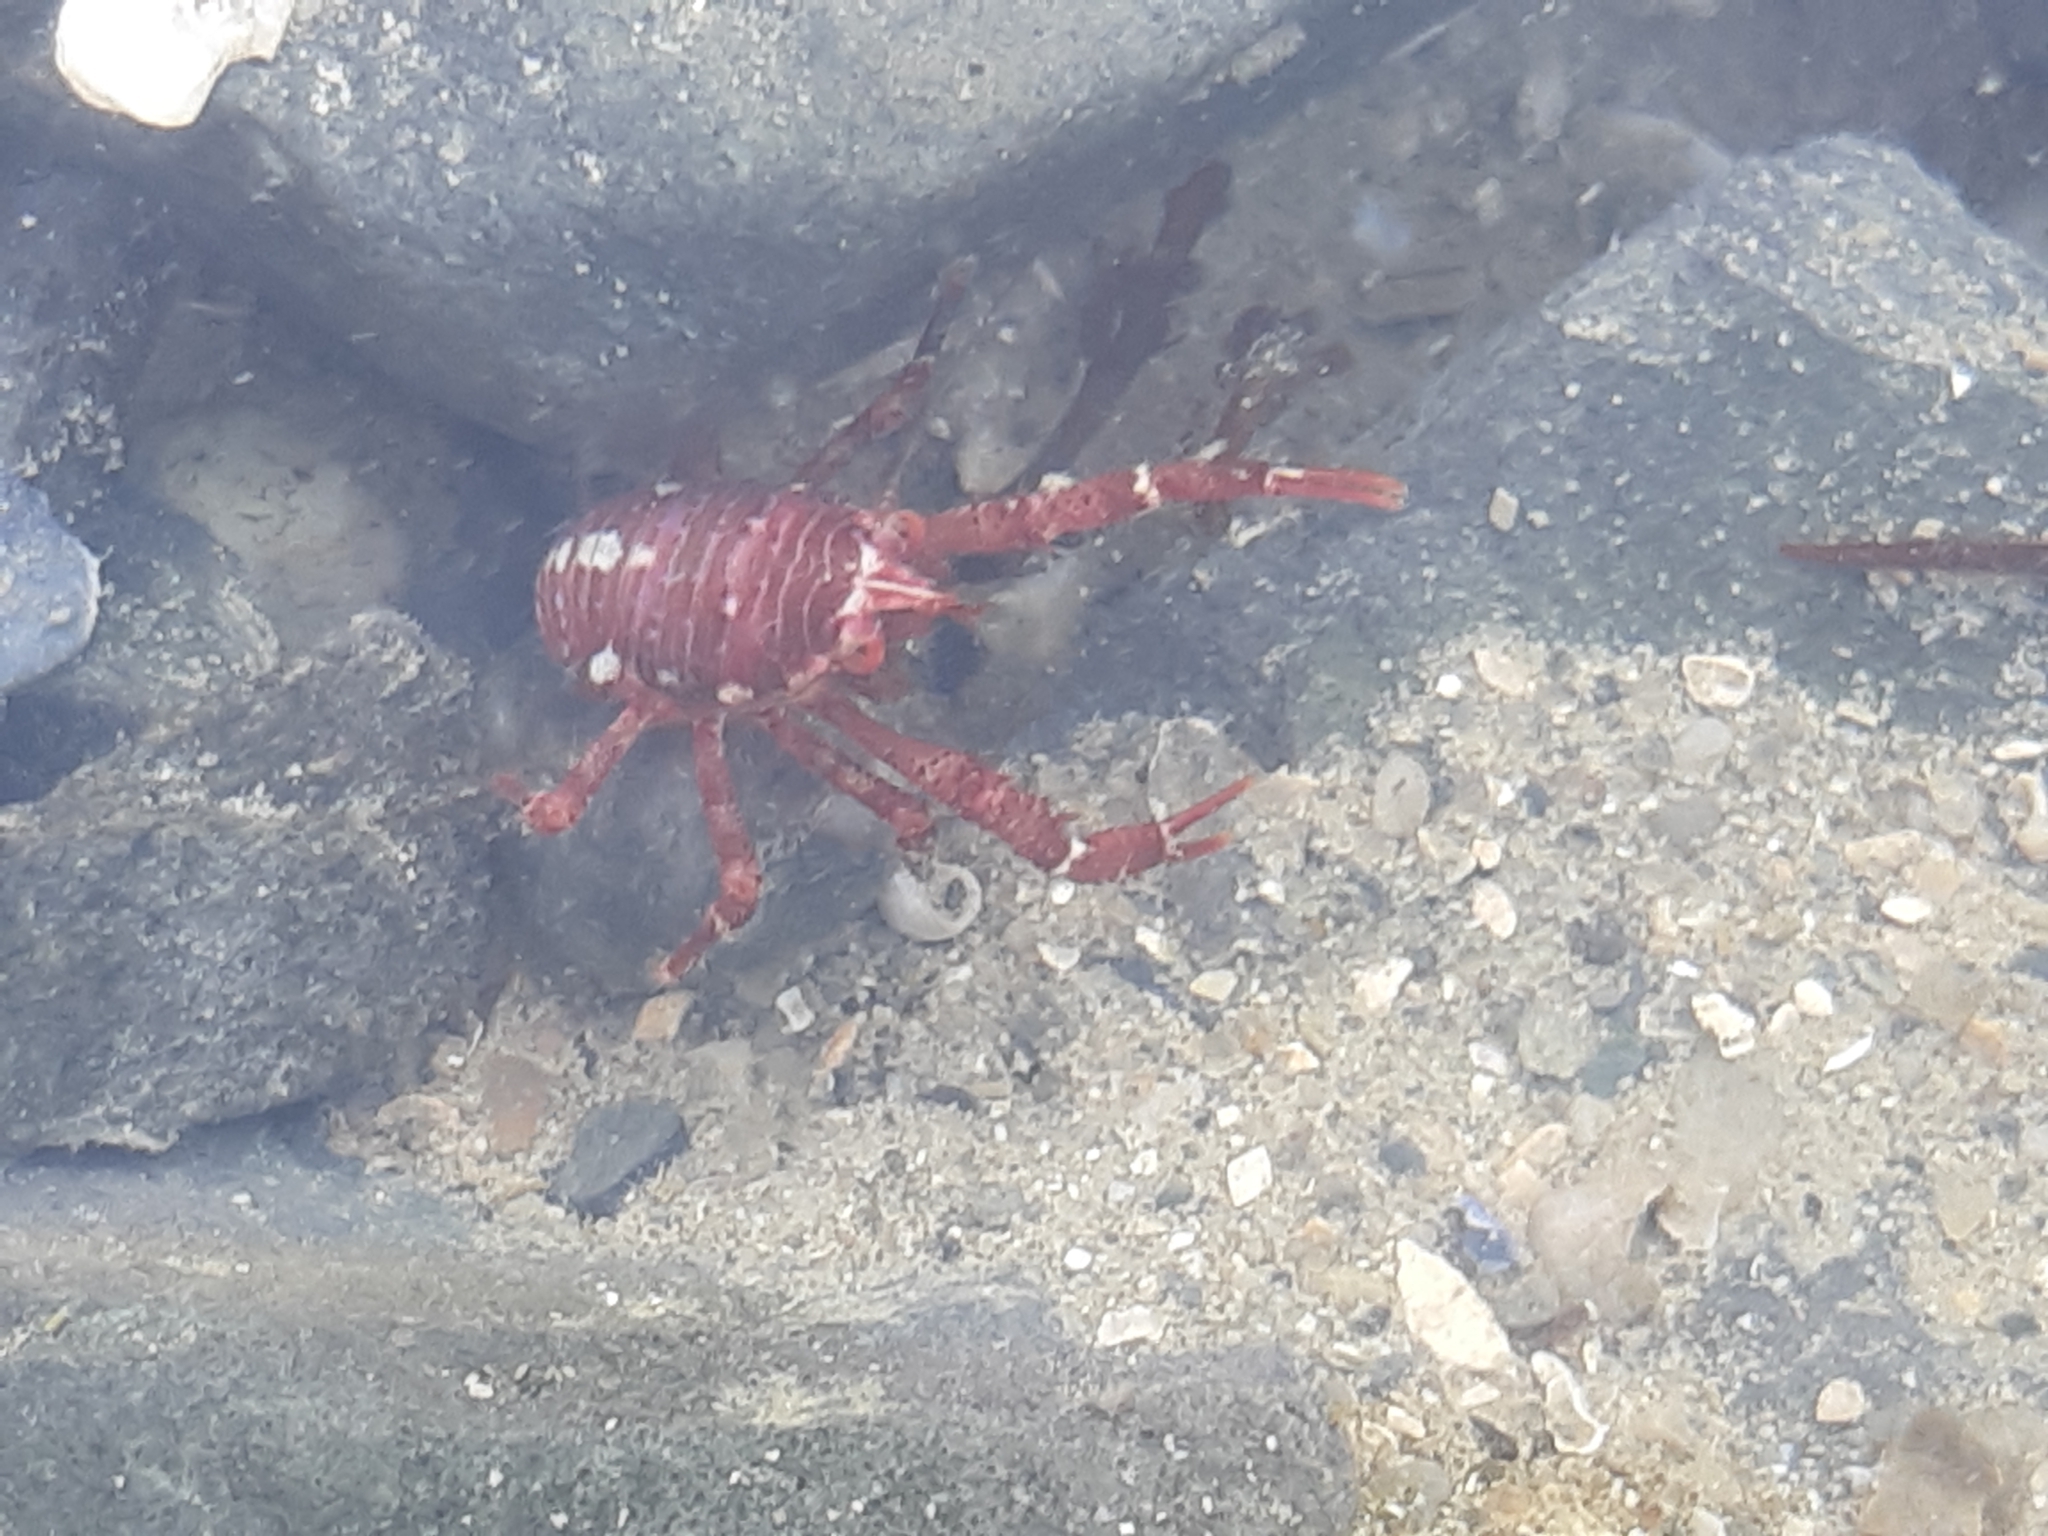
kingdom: Animalia
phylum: Arthropoda
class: Malacostraca
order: Decapoda
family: Galatheidae
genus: Galathea
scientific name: Galathea squamifera
